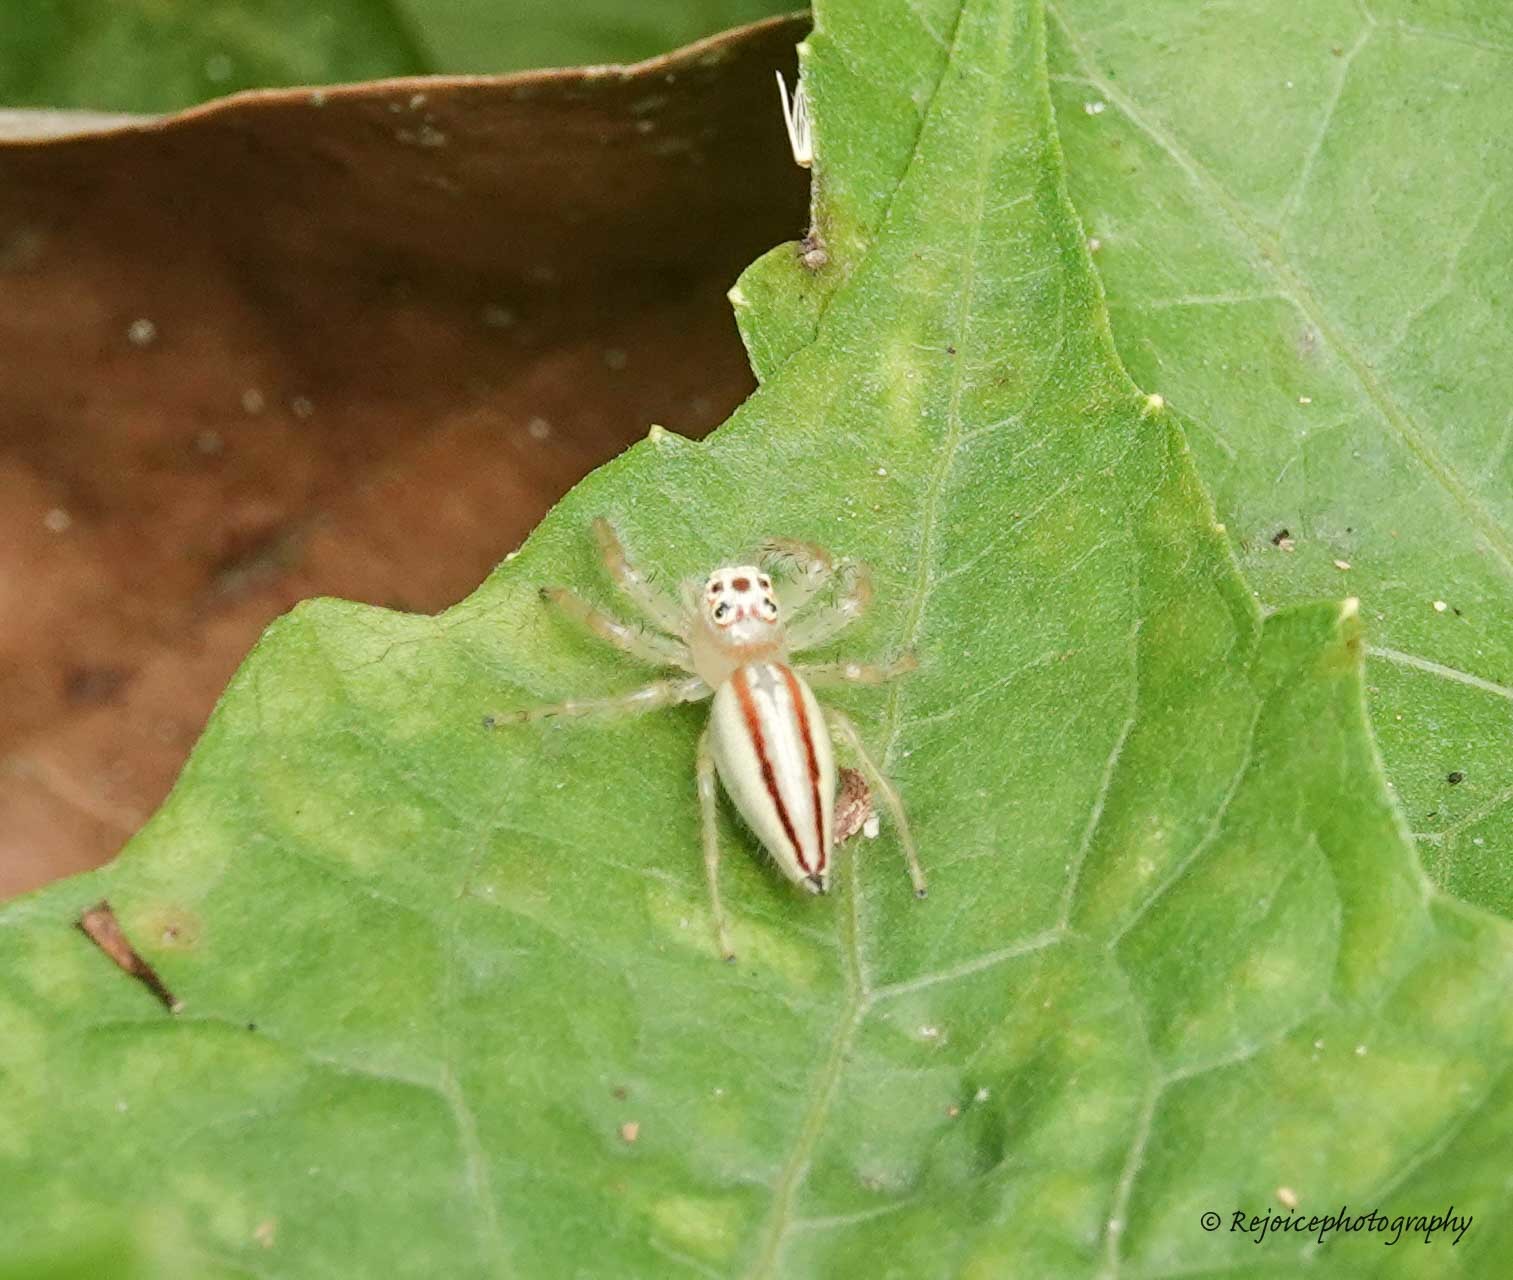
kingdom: Animalia
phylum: Arthropoda
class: Arachnida
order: Araneae
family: Salticidae
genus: Telamonia
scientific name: Telamonia dimidiata
